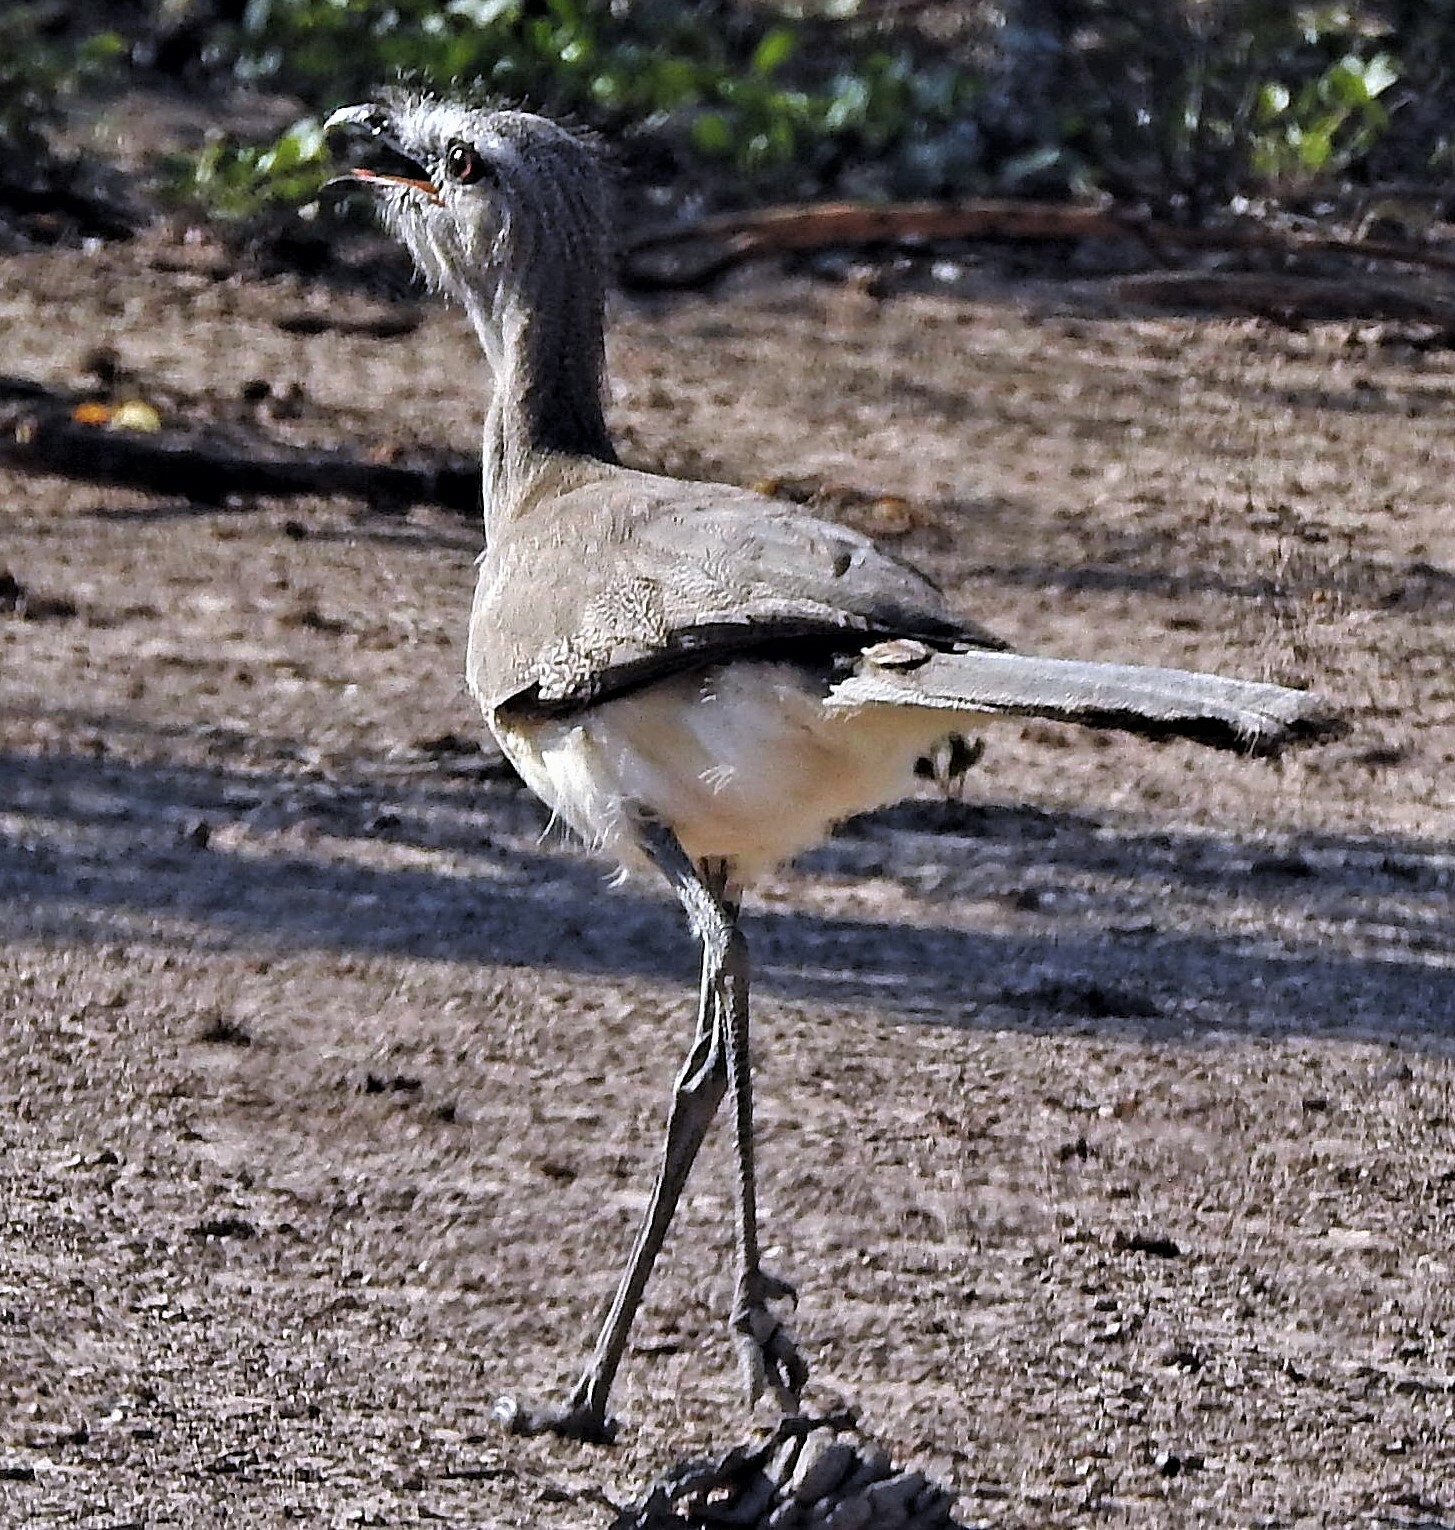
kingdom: Animalia
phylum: Chordata
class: Aves
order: Cariamiformes
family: Cariamidae
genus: Chunga
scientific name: Chunga burmeisteri
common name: Black-legged seriema
